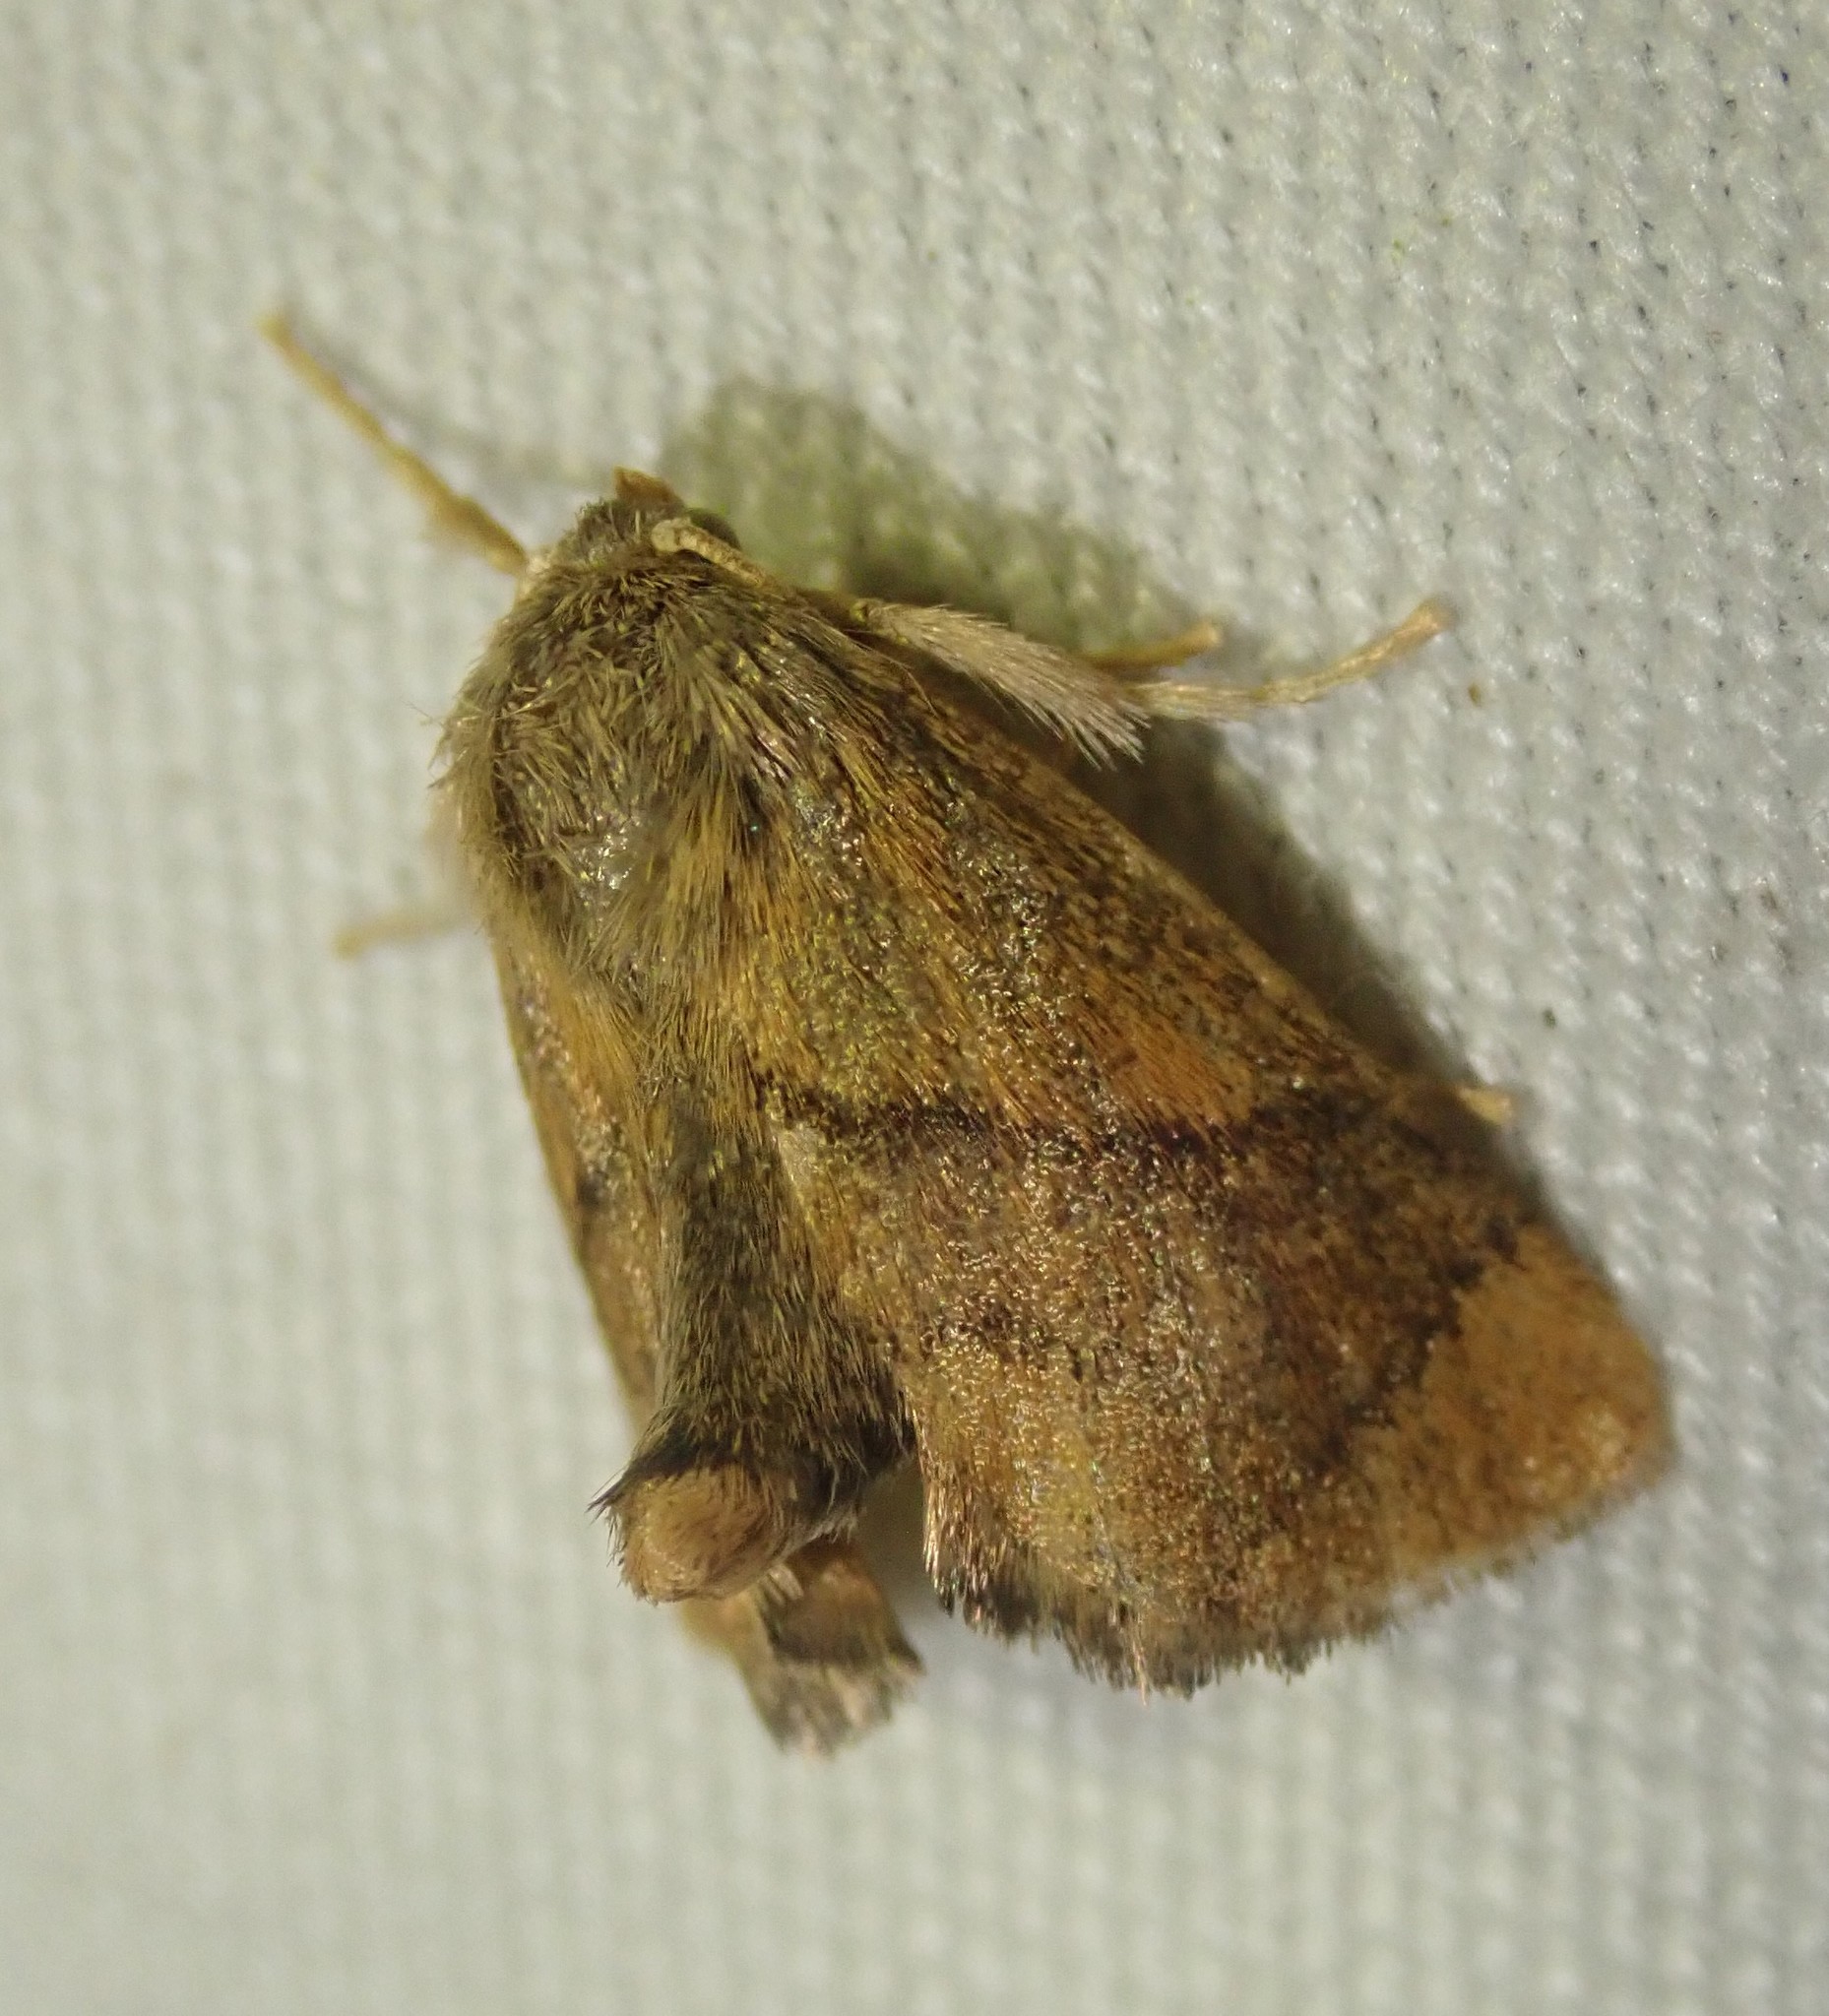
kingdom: Animalia
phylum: Arthropoda
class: Insecta
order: Lepidoptera
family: Limacodidae
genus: Apoda
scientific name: Apoda limacodes
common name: Festoon
